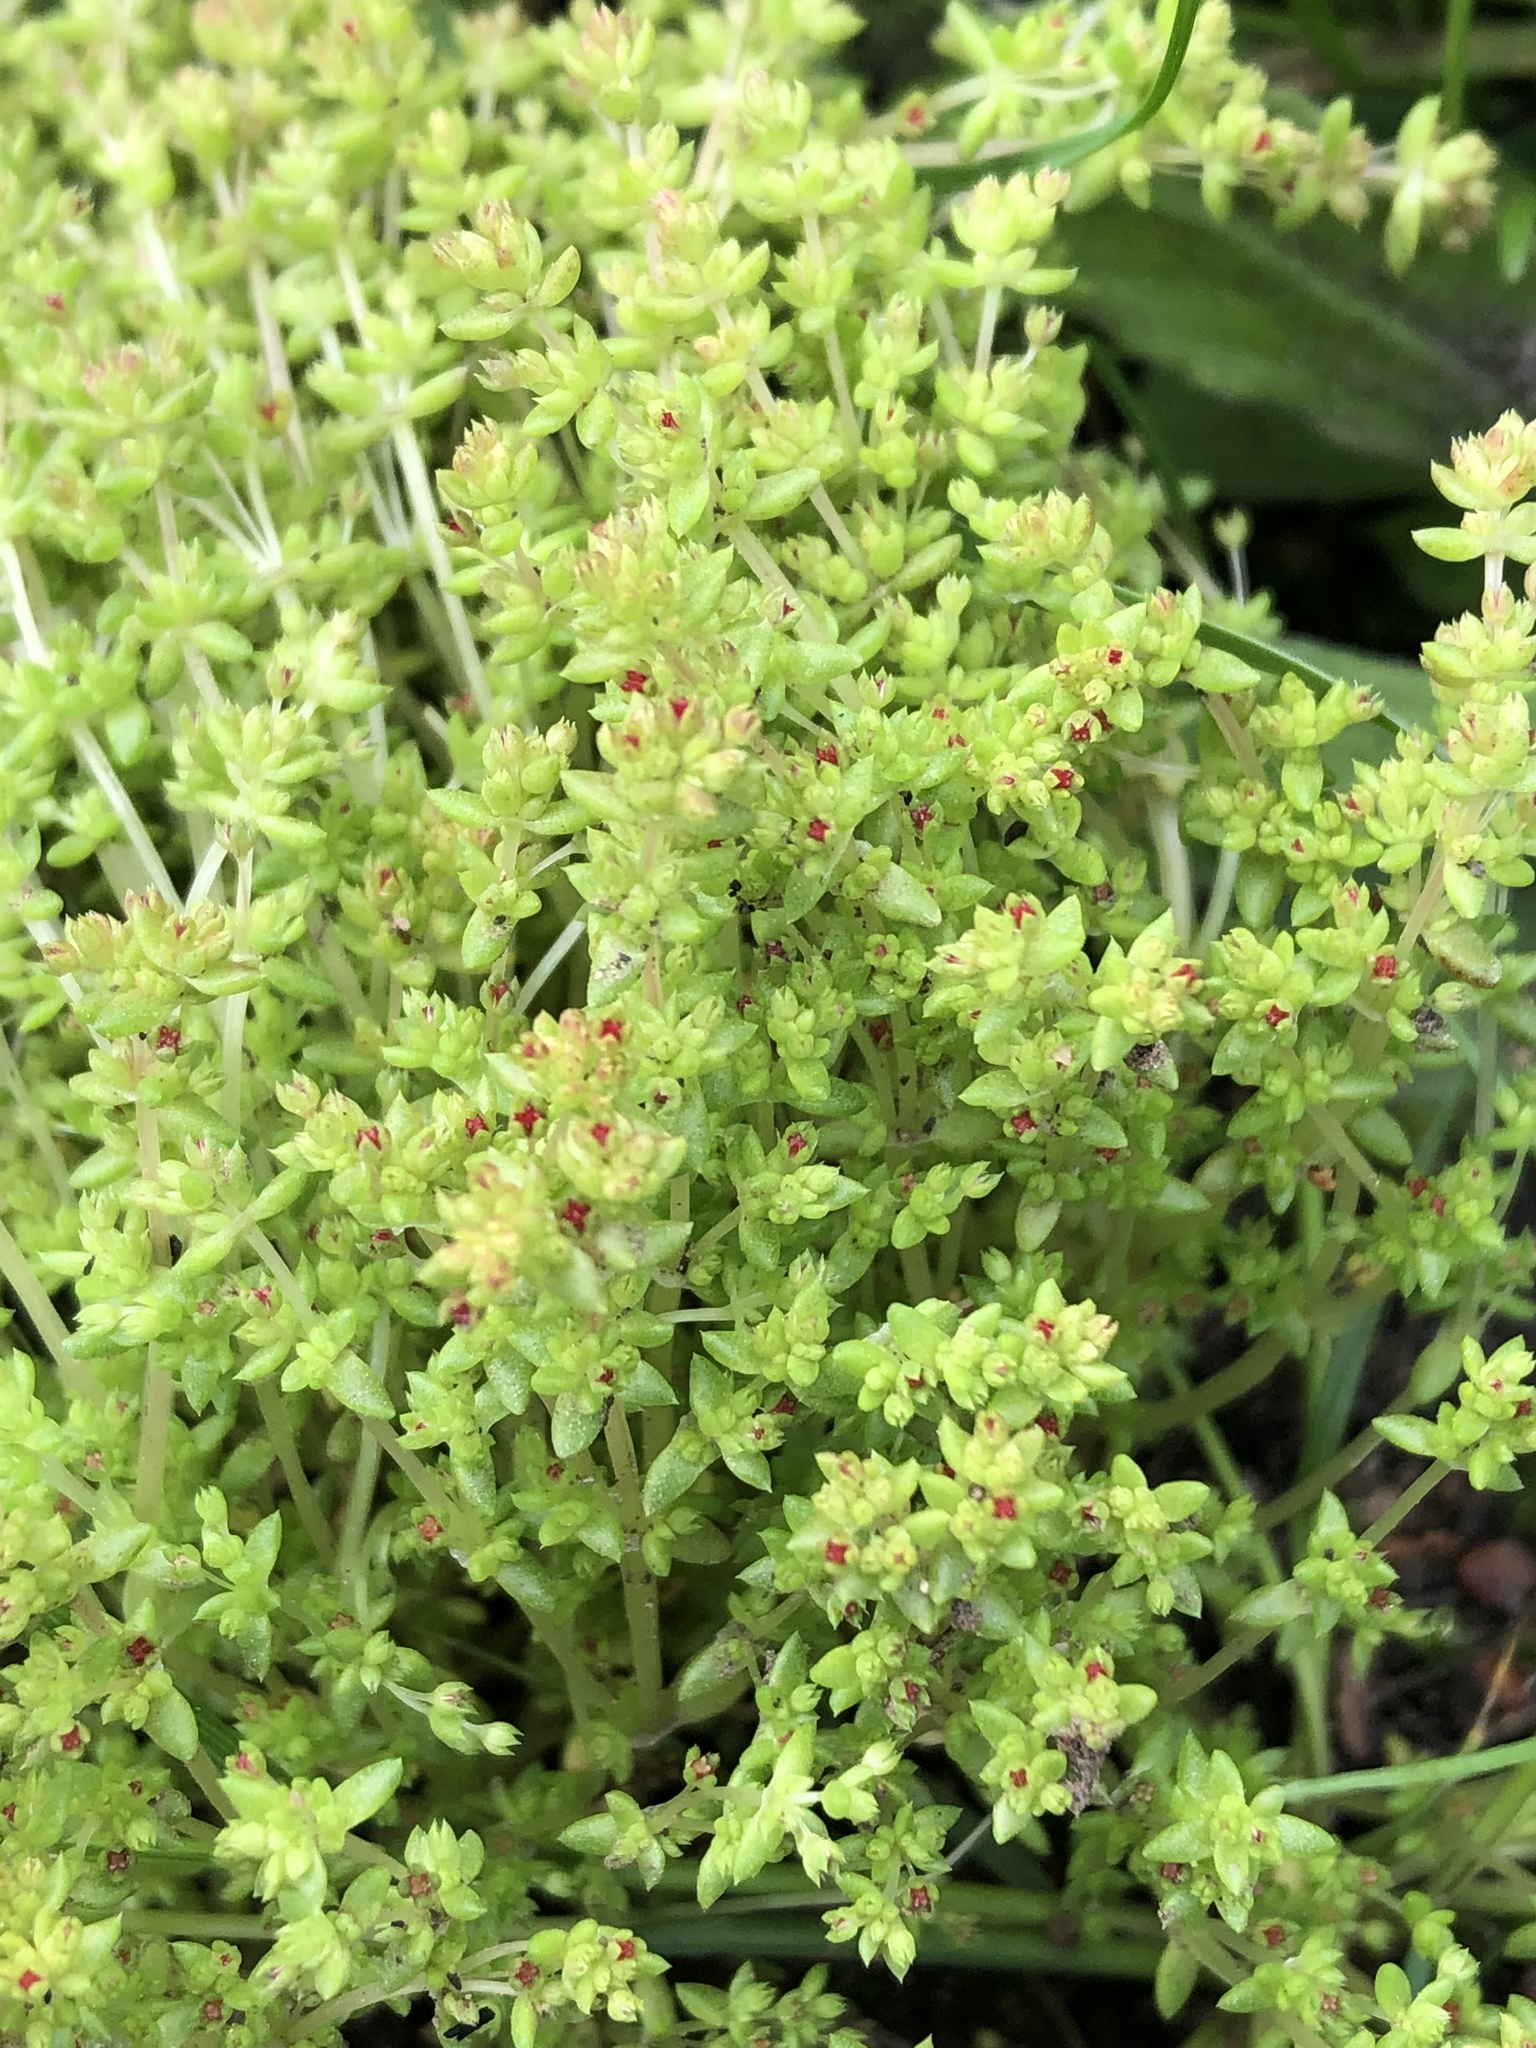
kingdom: Plantae
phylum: Tracheophyta
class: Magnoliopsida
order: Saxifragales
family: Crassulaceae
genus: Crassula
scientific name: Crassula connata
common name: Erect pygmyweed
